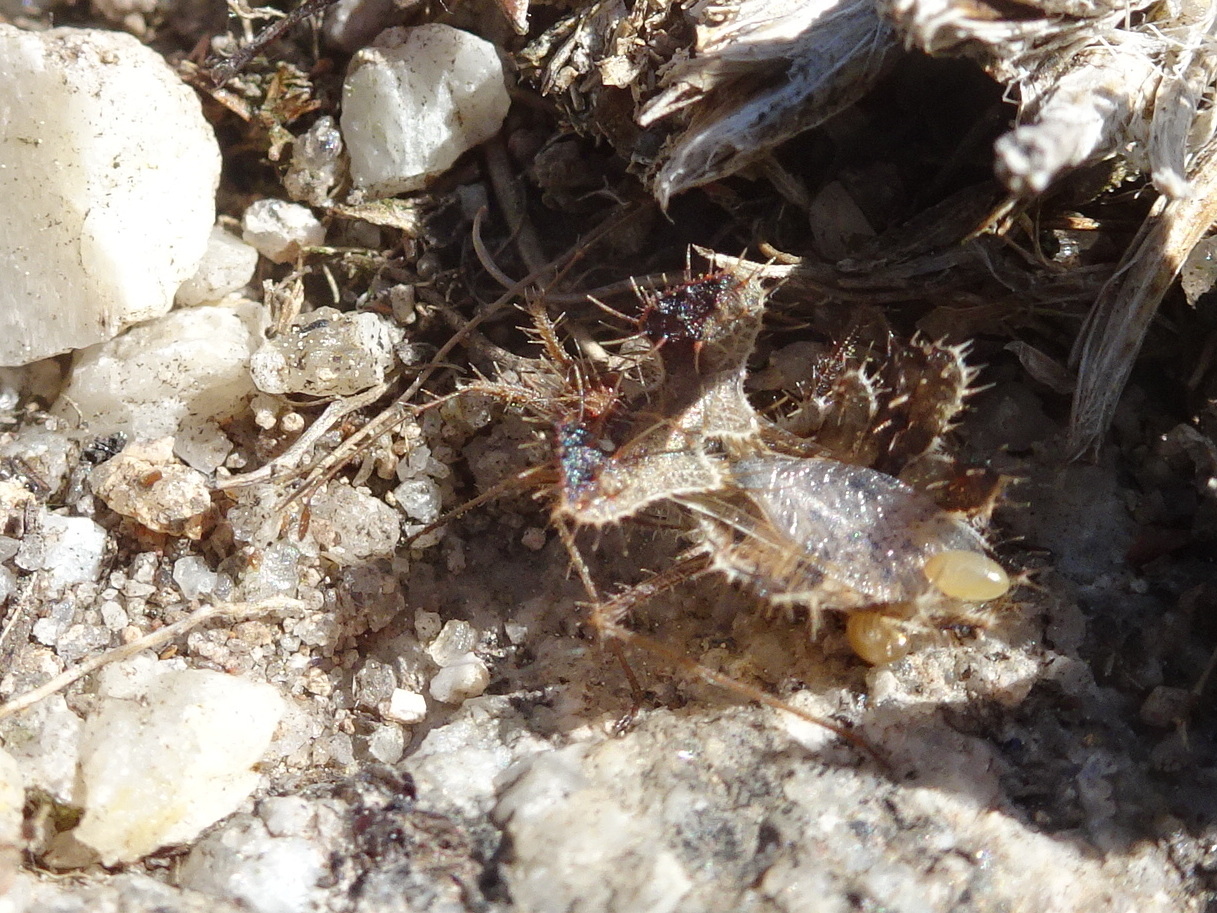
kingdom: Animalia
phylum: Arthropoda
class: Insecta
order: Hemiptera
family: Coreidae
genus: Phyllomorpha
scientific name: Phyllomorpha laciniata
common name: Golden egg bug
